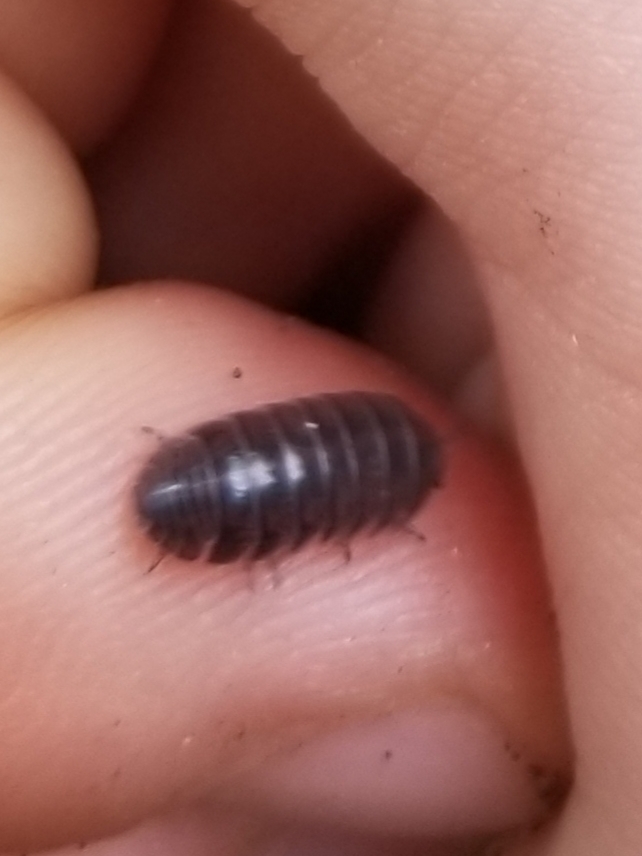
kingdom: Animalia
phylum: Arthropoda
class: Malacostraca
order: Isopoda
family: Armadillidiidae
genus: Armadillidium
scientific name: Armadillidium vulgare
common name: Common pill woodlouse
